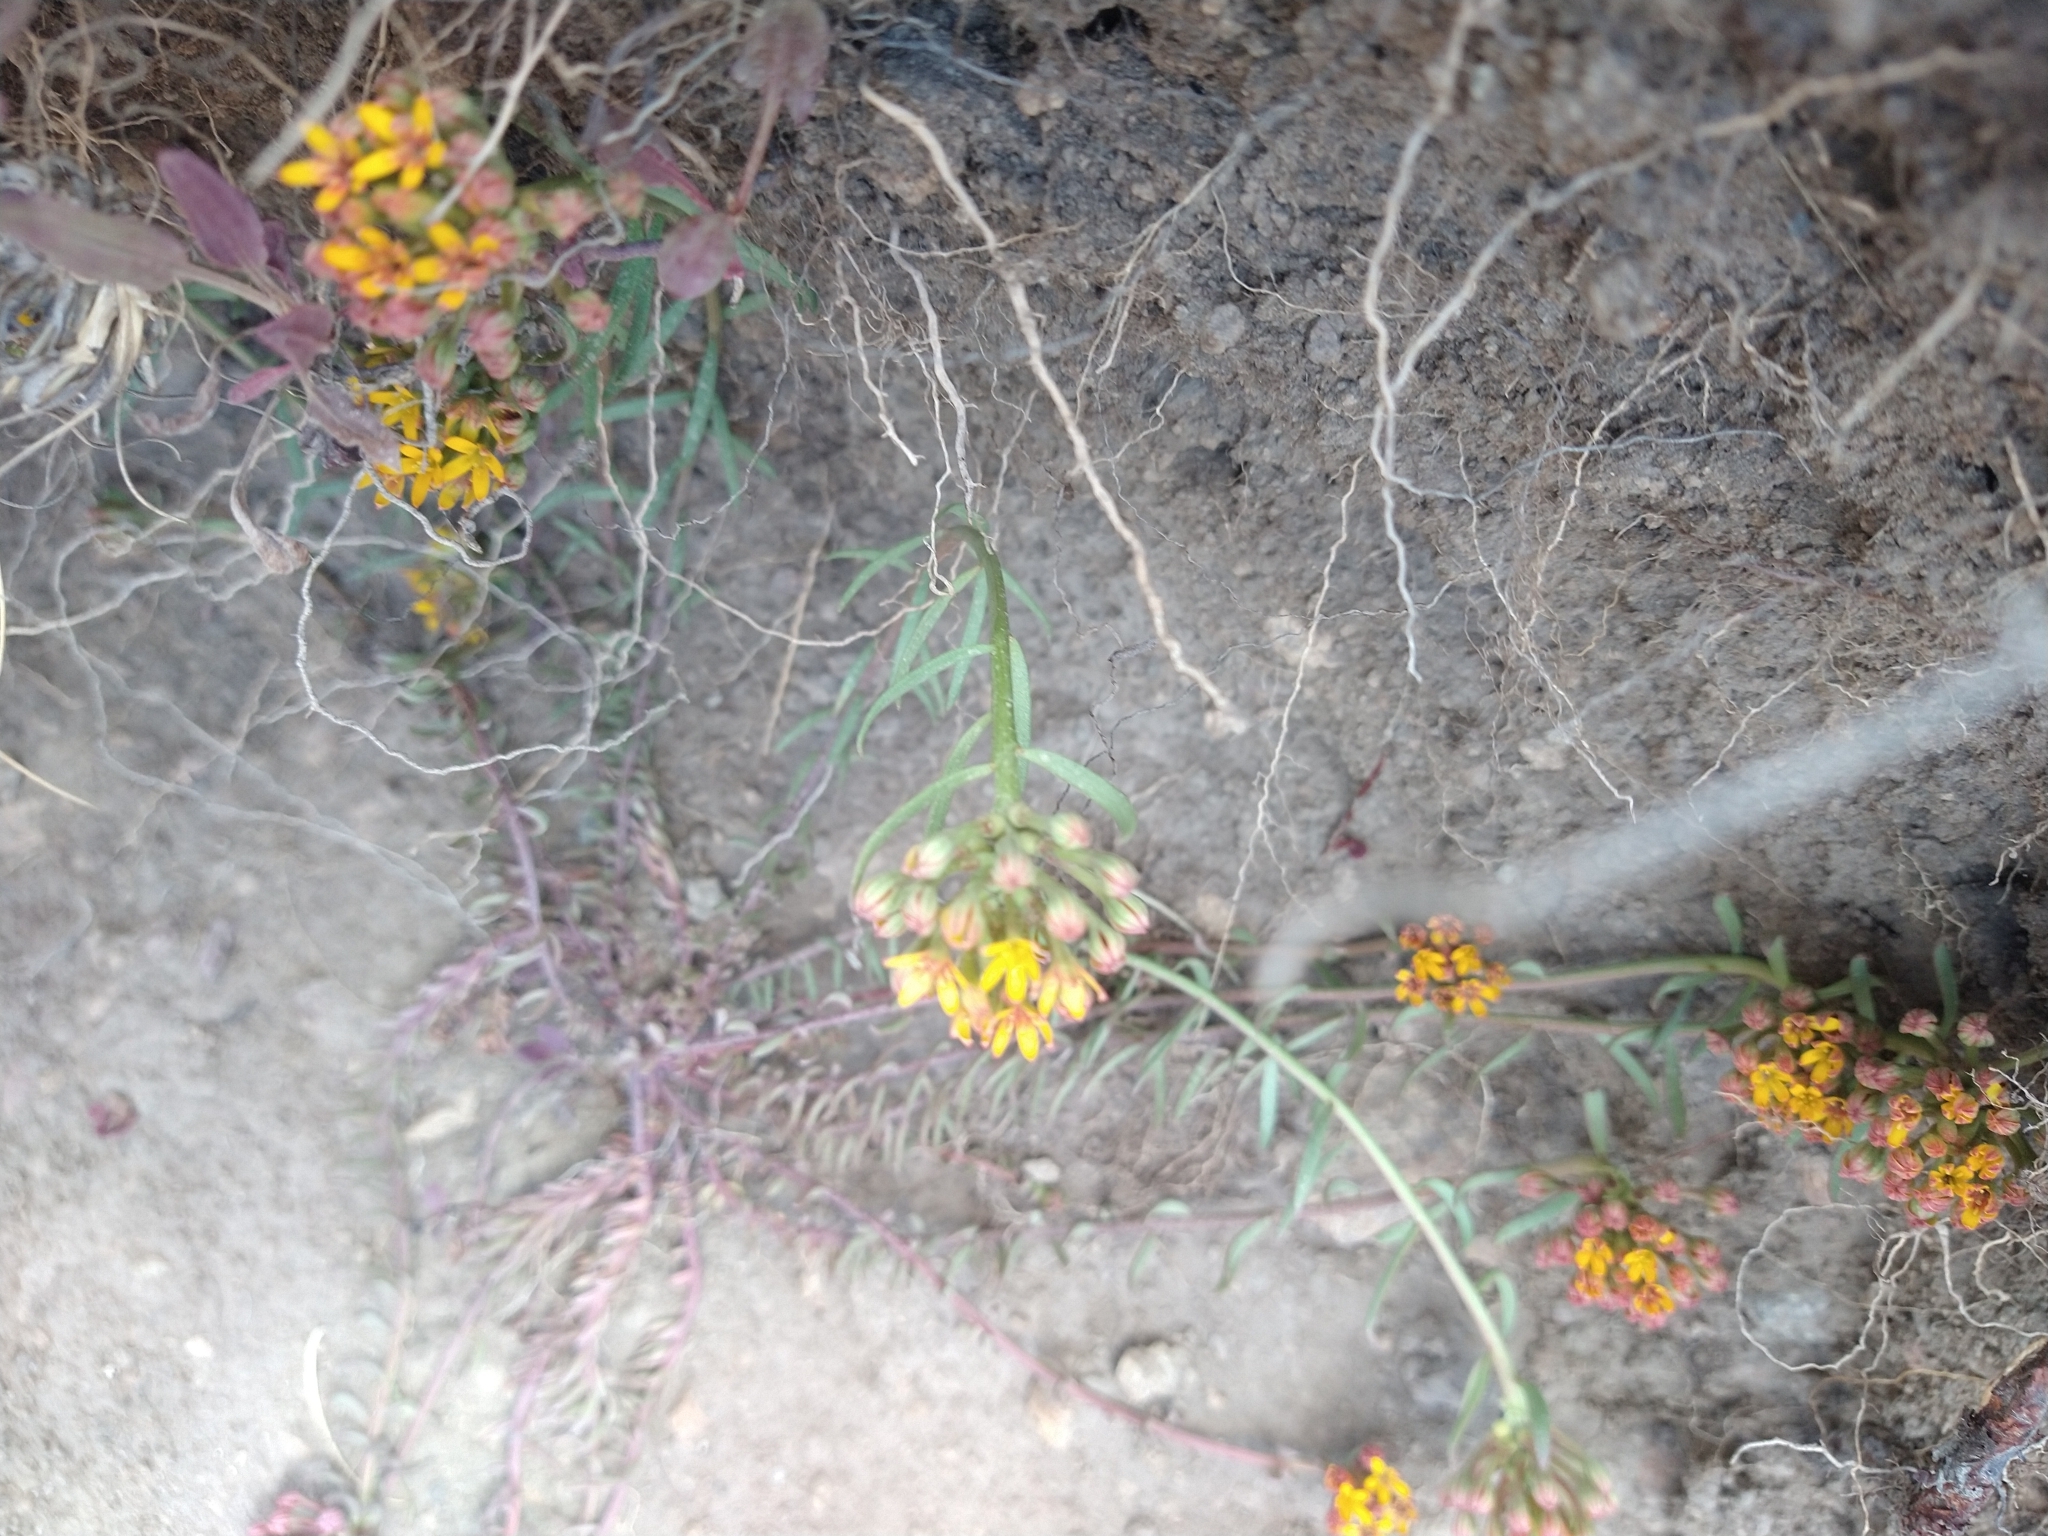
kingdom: Plantae
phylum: Tracheophyta
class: Magnoliopsida
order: Santalales
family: Schoepfiaceae
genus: Quinchamalium
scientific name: Quinchamalium chilense
